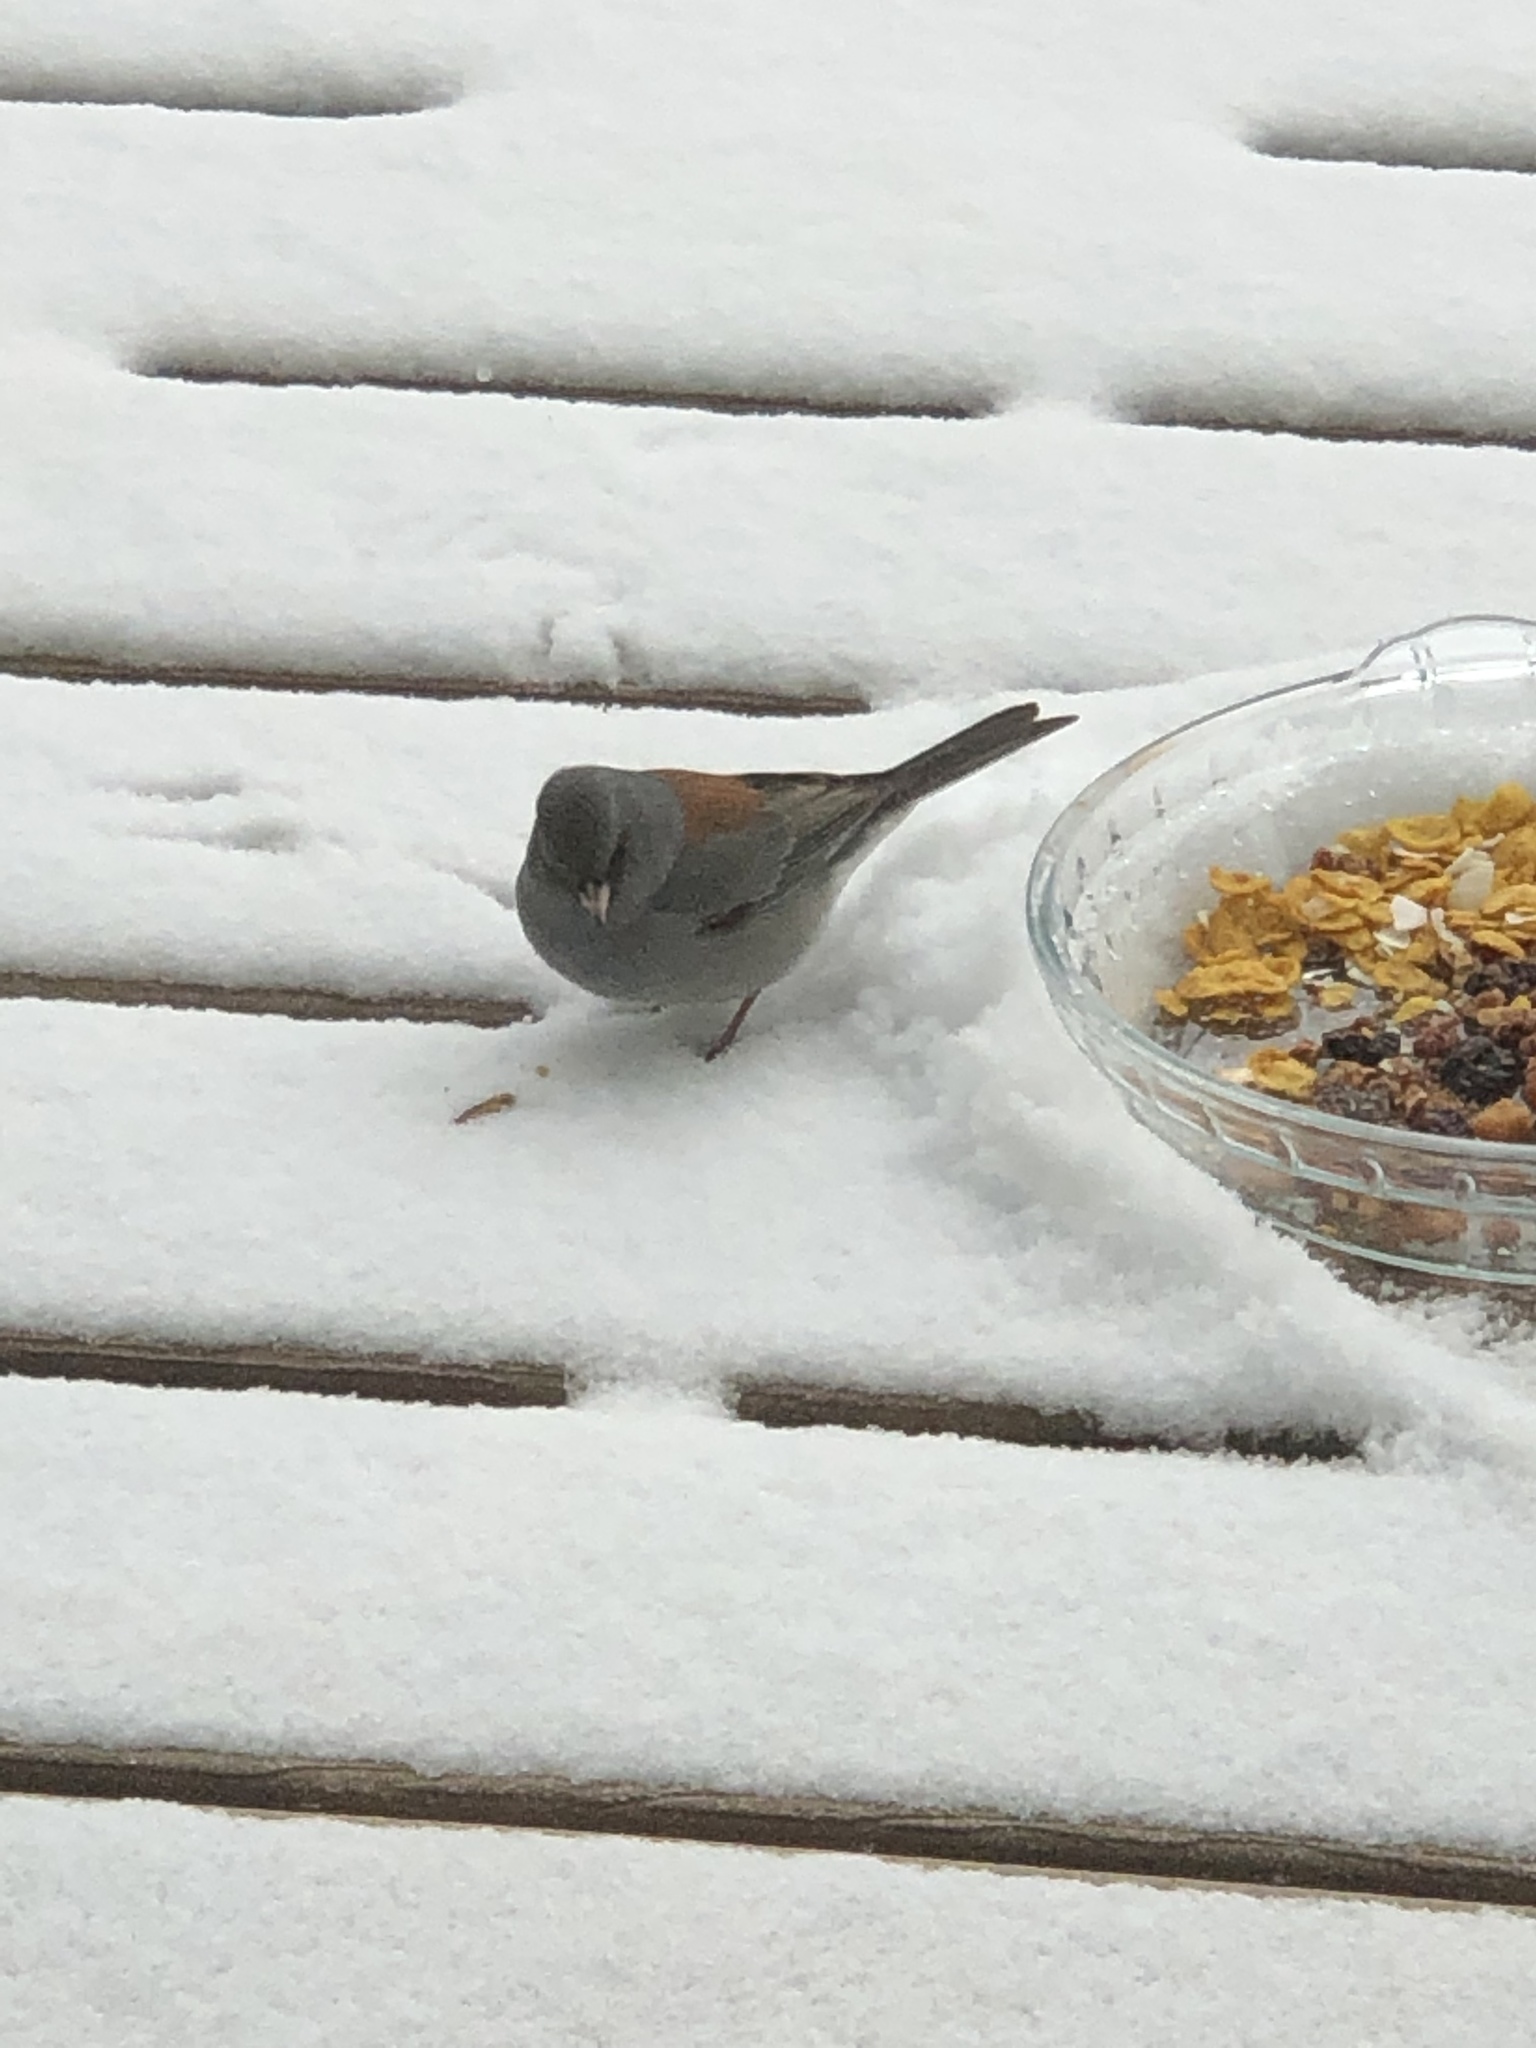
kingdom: Animalia
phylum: Chordata
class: Aves
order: Passeriformes
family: Passerellidae
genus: Junco
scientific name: Junco hyemalis
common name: Dark-eyed junco
